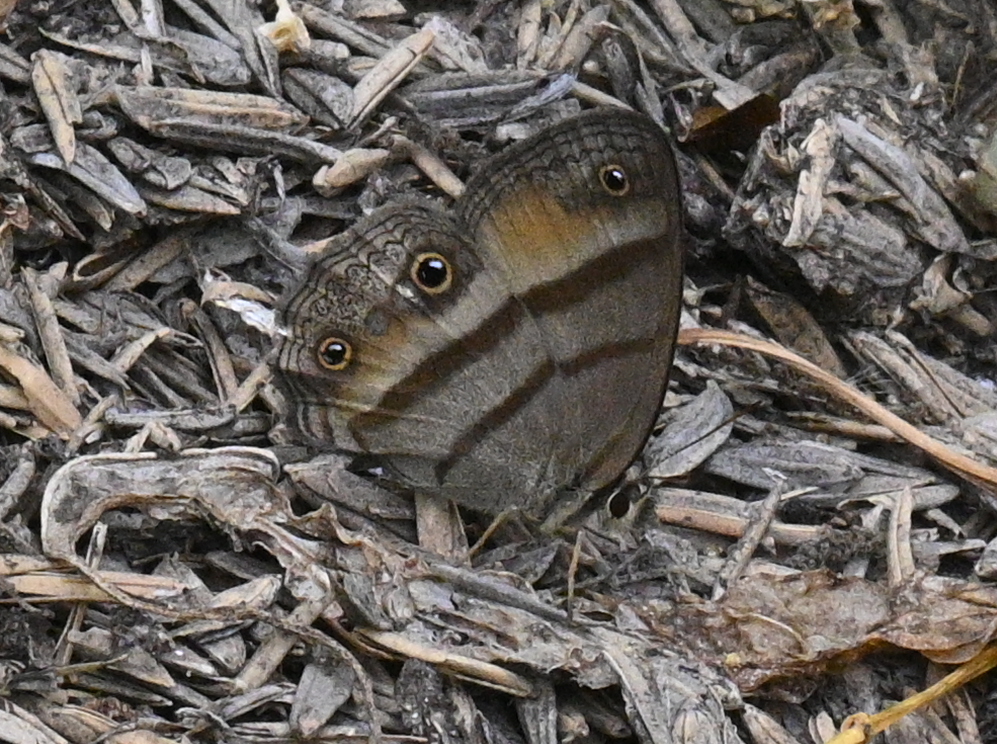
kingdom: Animalia
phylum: Arthropoda
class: Insecta
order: Lepidoptera
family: Nymphalidae
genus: Argyreuptychia
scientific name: Argyreuptychia penelope
